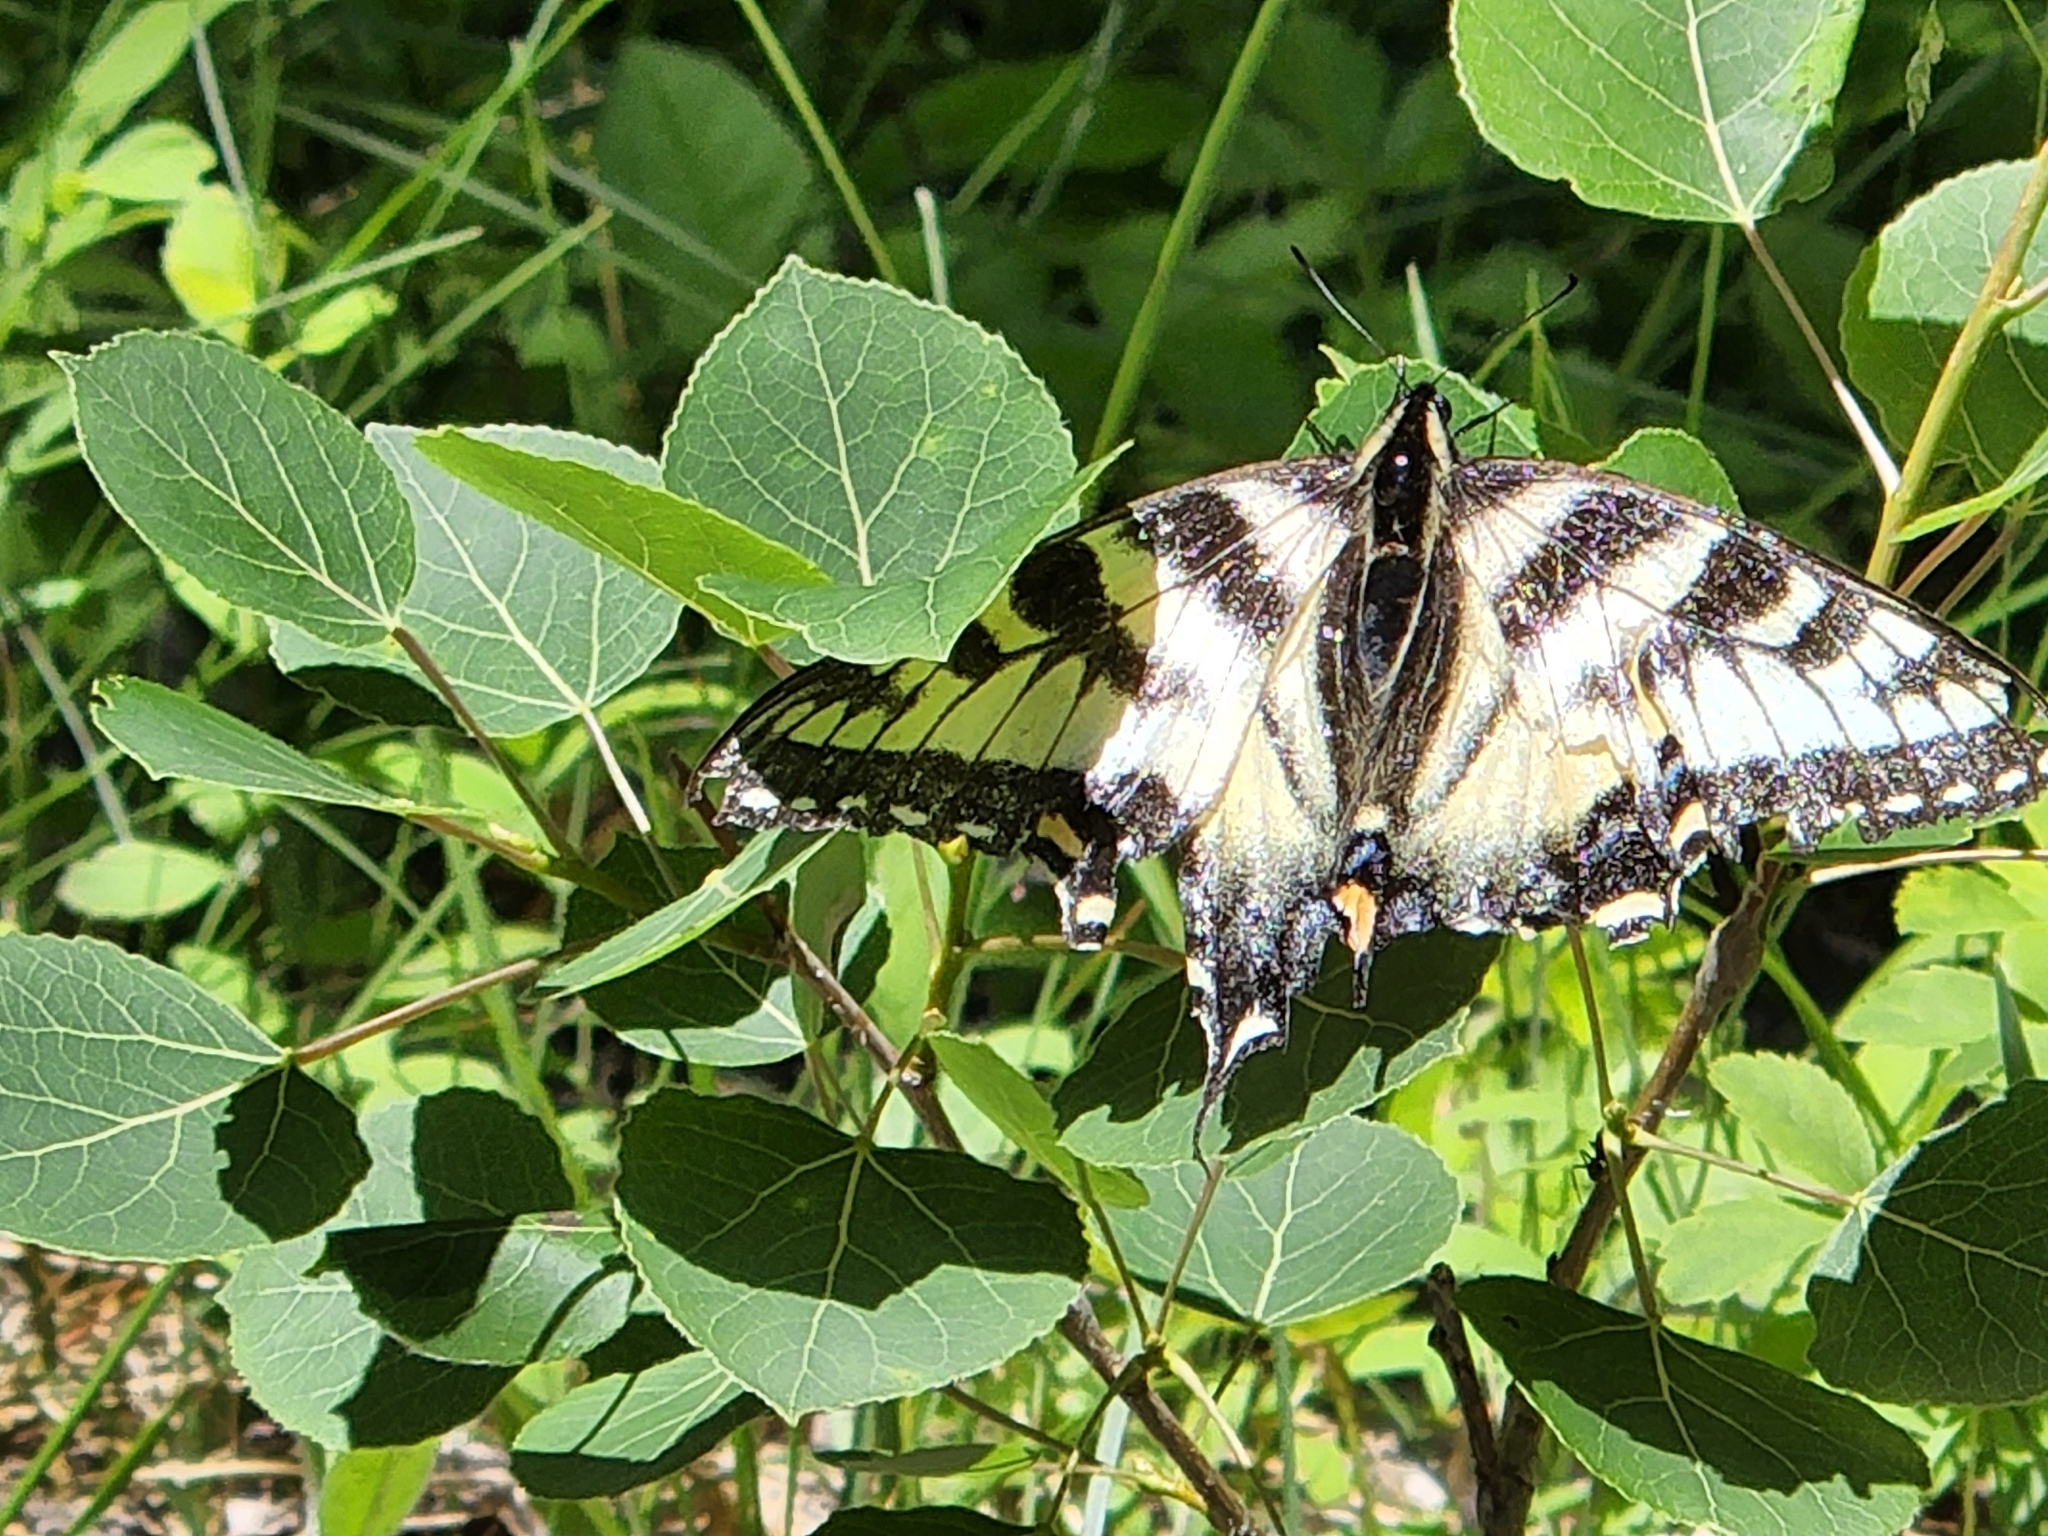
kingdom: Animalia
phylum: Arthropoda
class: Insecta
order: Lepidoptera
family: Papilionidae
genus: Papilio
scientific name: Papilio canadensis
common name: Canadian tiger swallowtail
